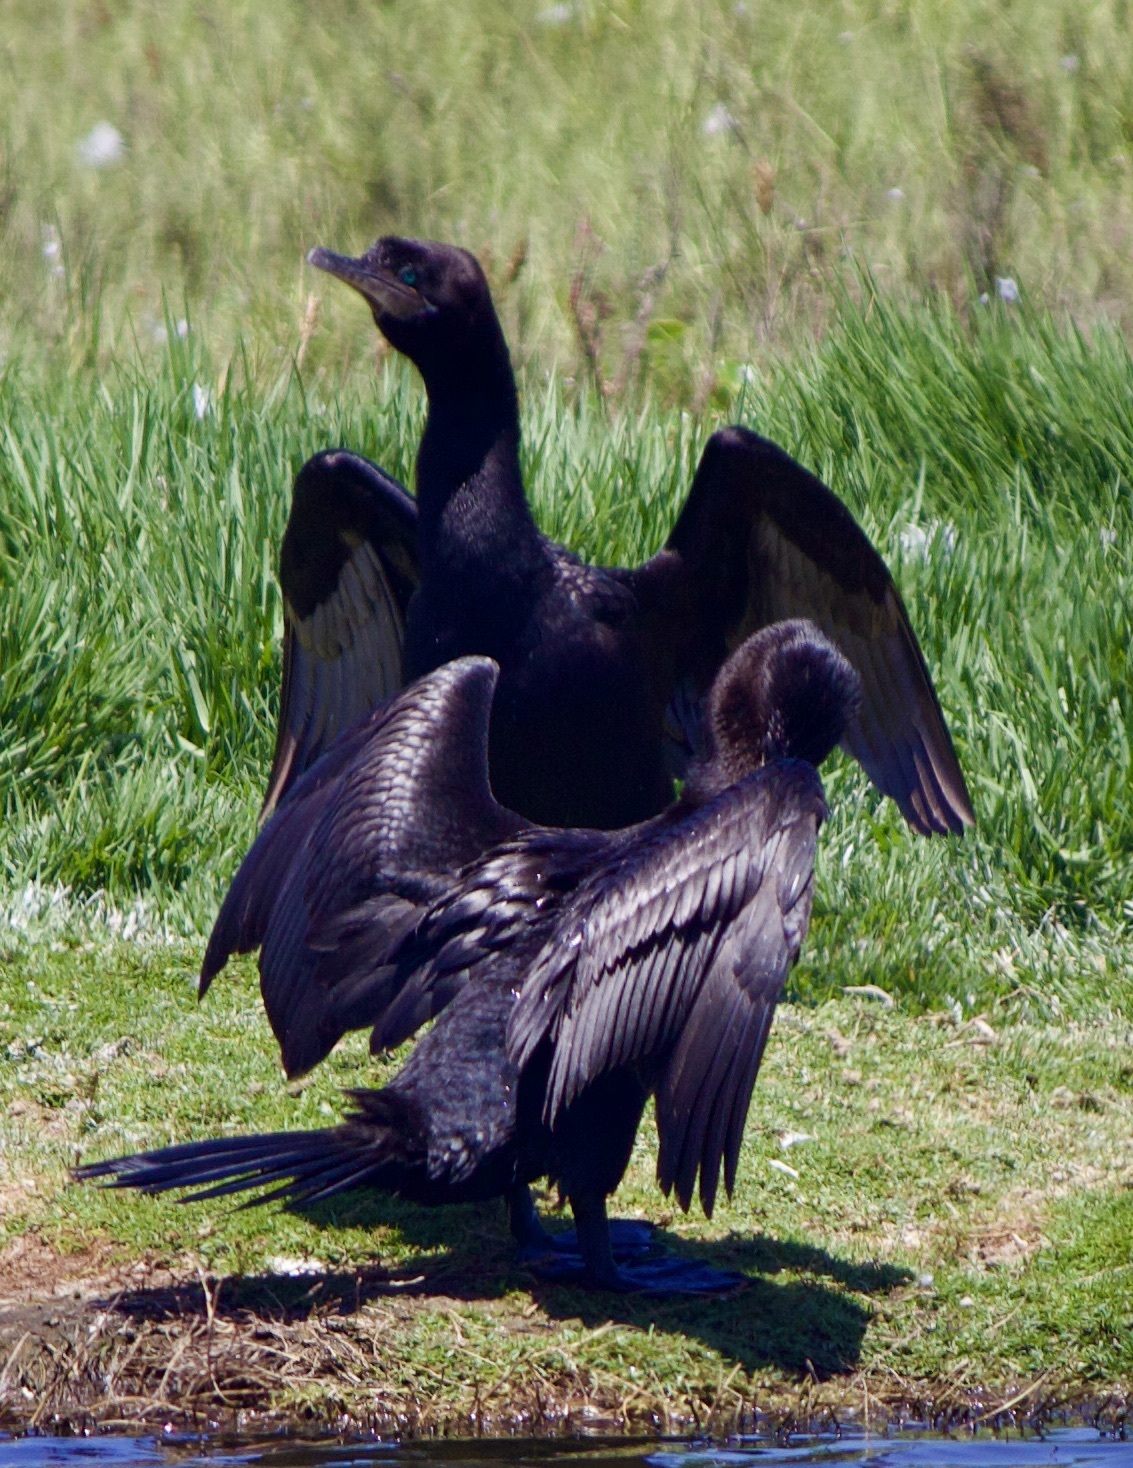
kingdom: Animalia
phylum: Chordata
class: Aves
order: Suliformes
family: Phalacrocoracidae
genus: Phalacrocorax
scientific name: Phalacrocorax brasilianus
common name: Neotropic cormorant
